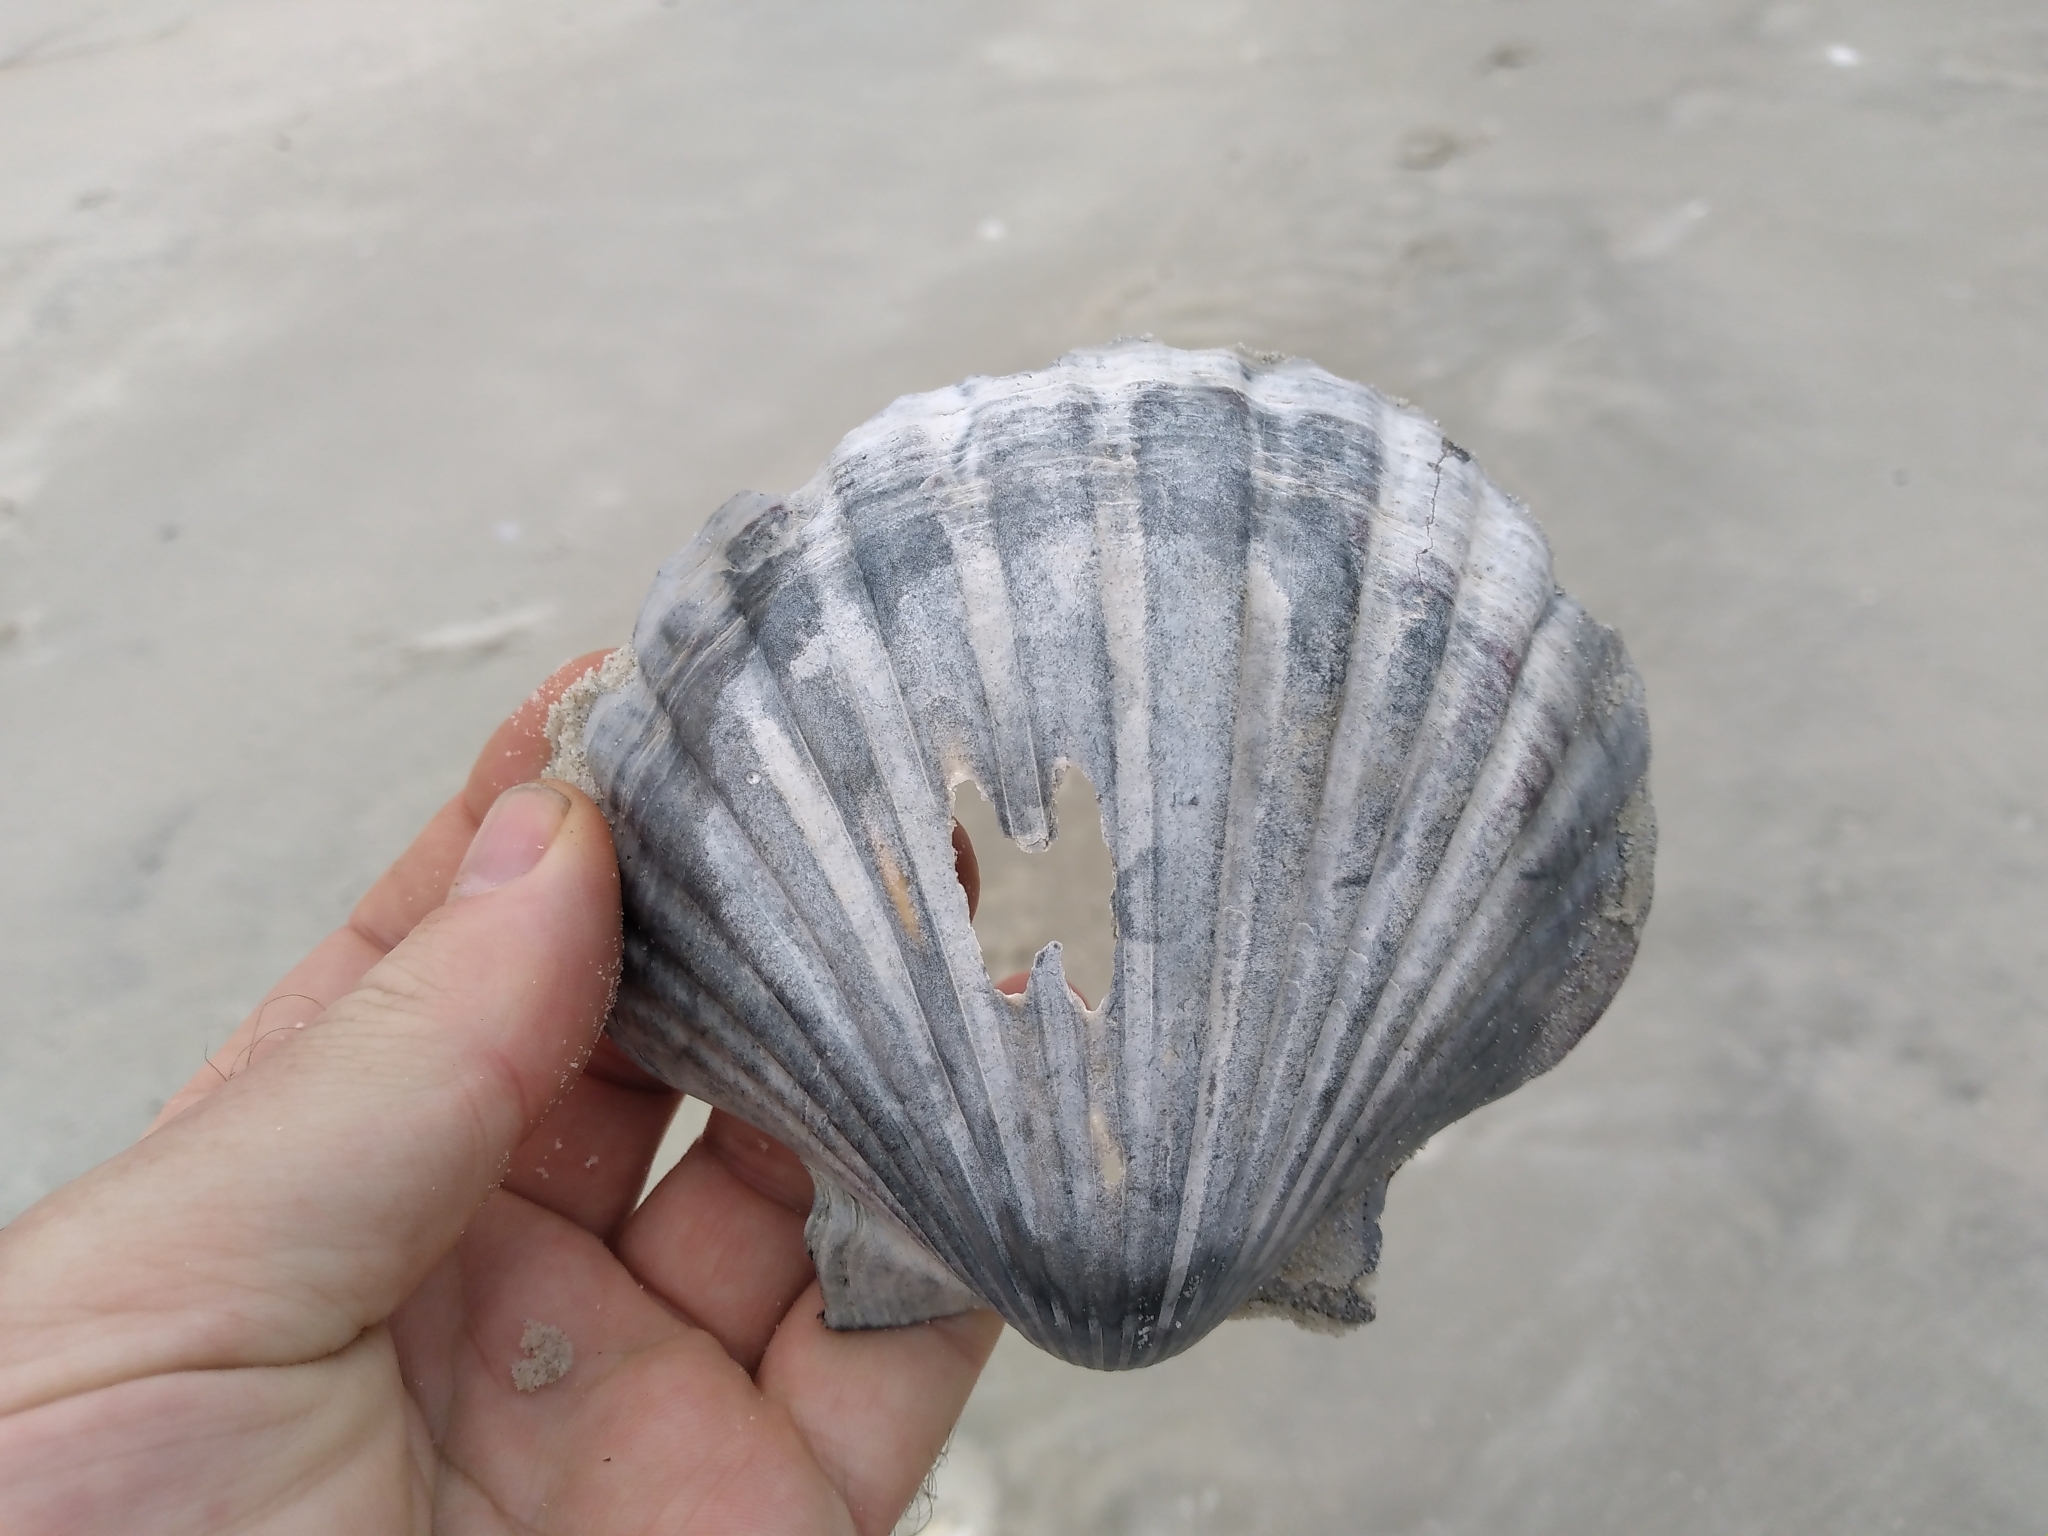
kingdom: Animalia
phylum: Mollusca
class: Bivalvia
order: Pectinida
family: Pectinidae
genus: Pecten
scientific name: Pecten novaezelandiae
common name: New zealand scallop
